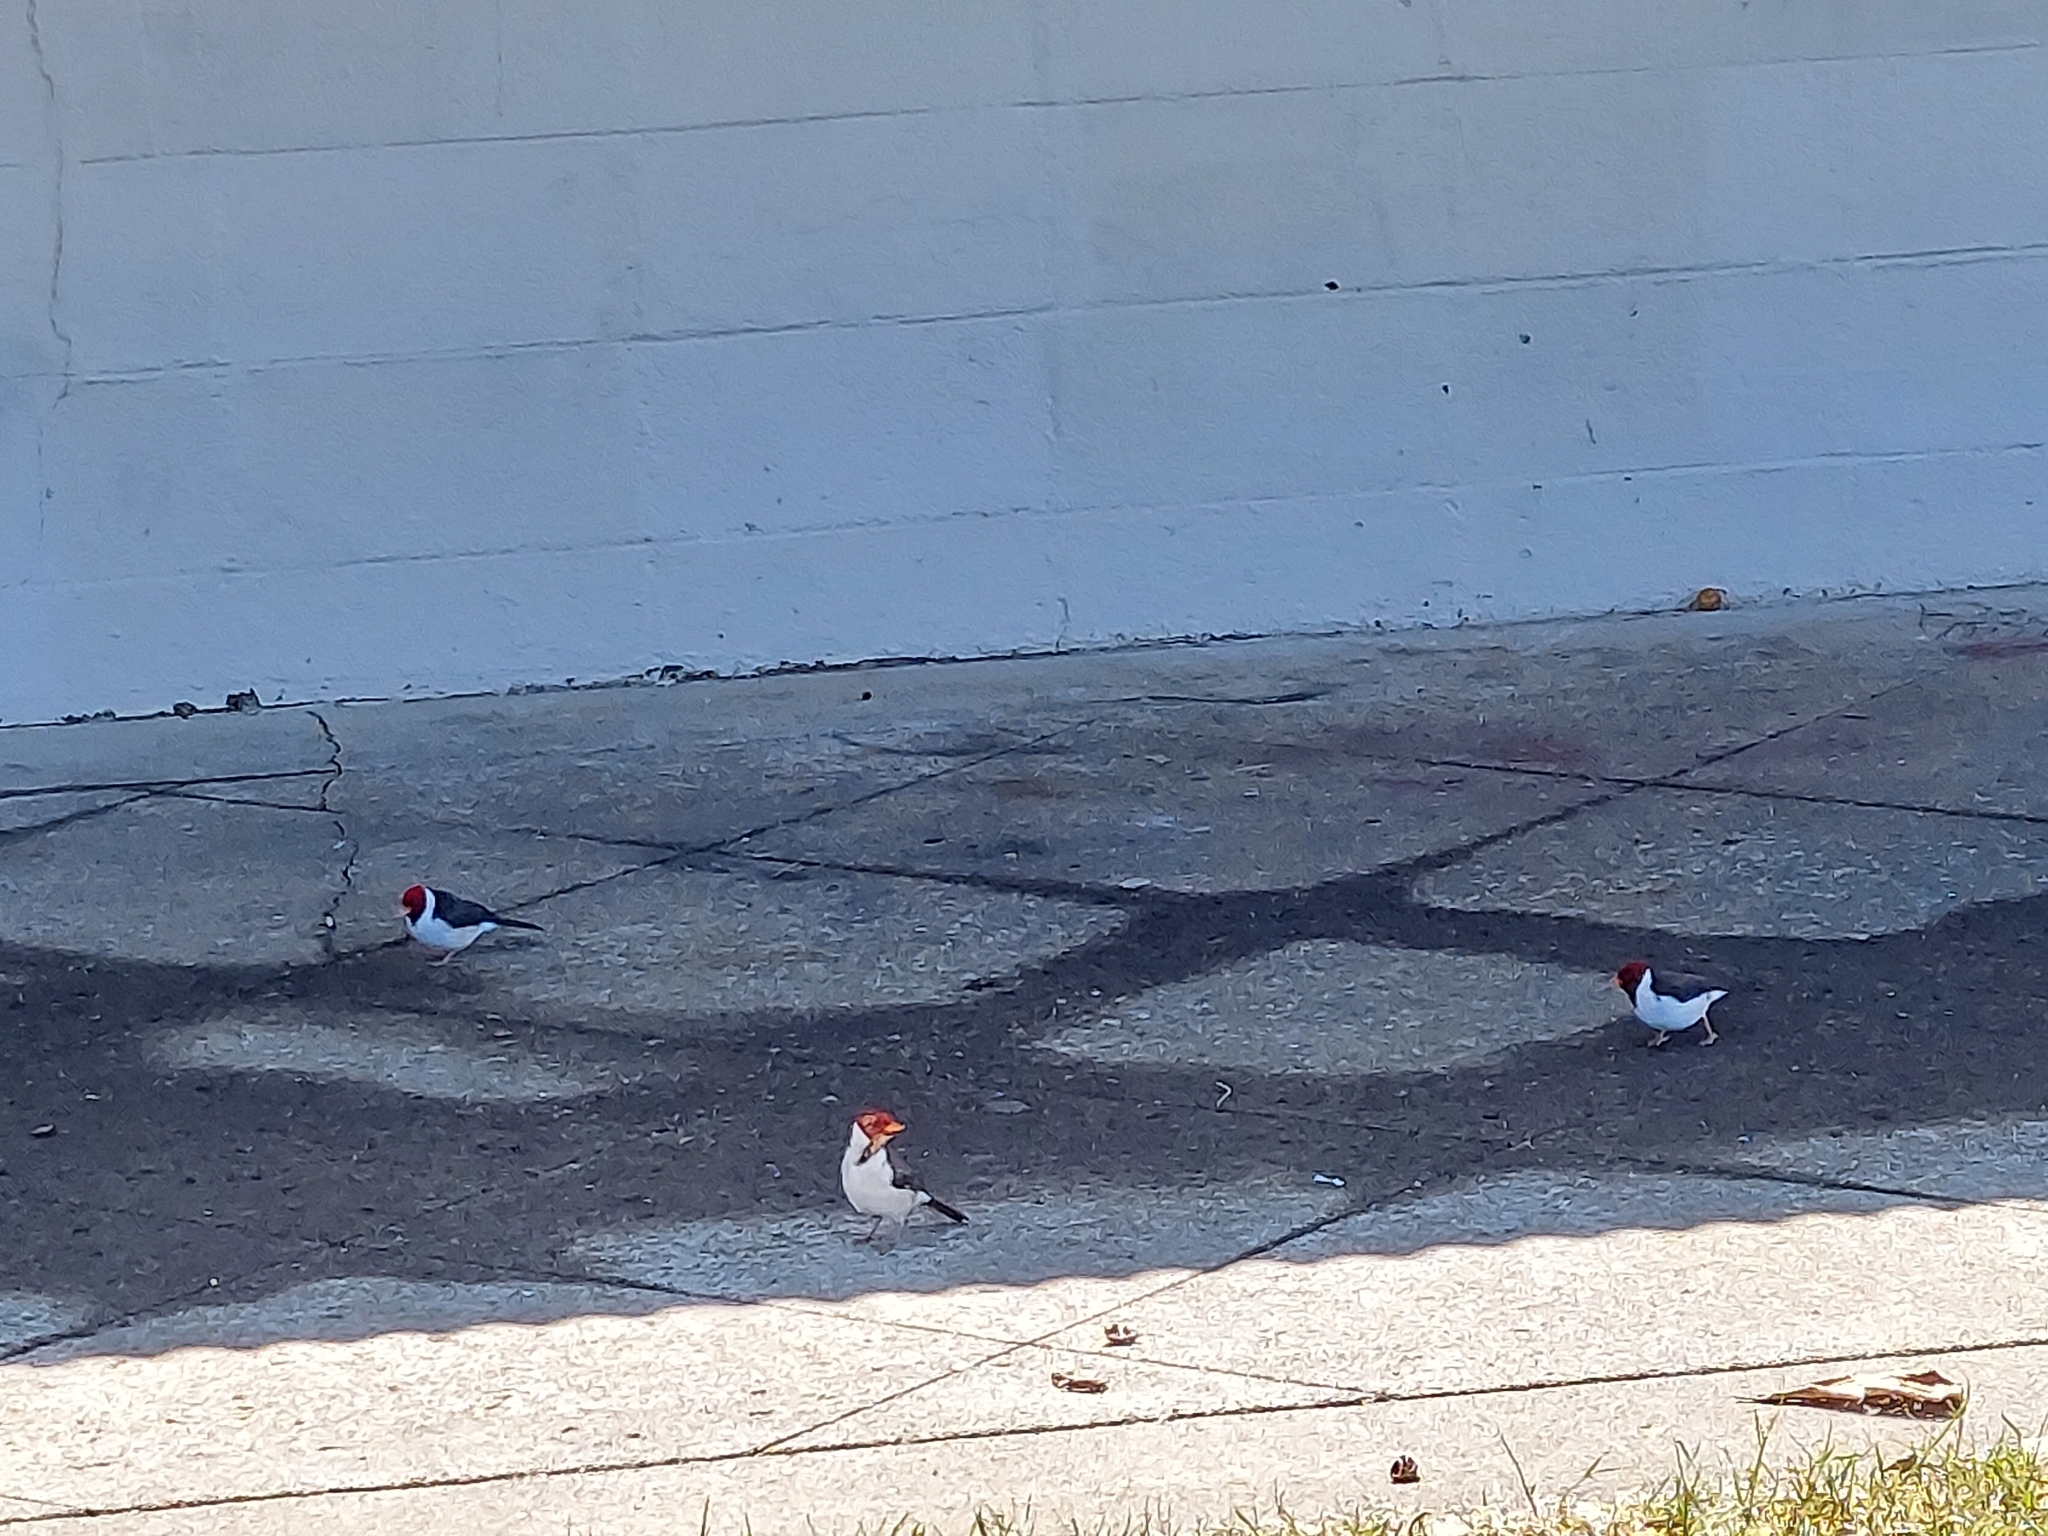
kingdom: Animalia
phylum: Chordata
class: Aves
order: Passeriformes
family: Thraupidae
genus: Paroaria
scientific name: Paroaria capitata
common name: Yellow-billed cardinal
